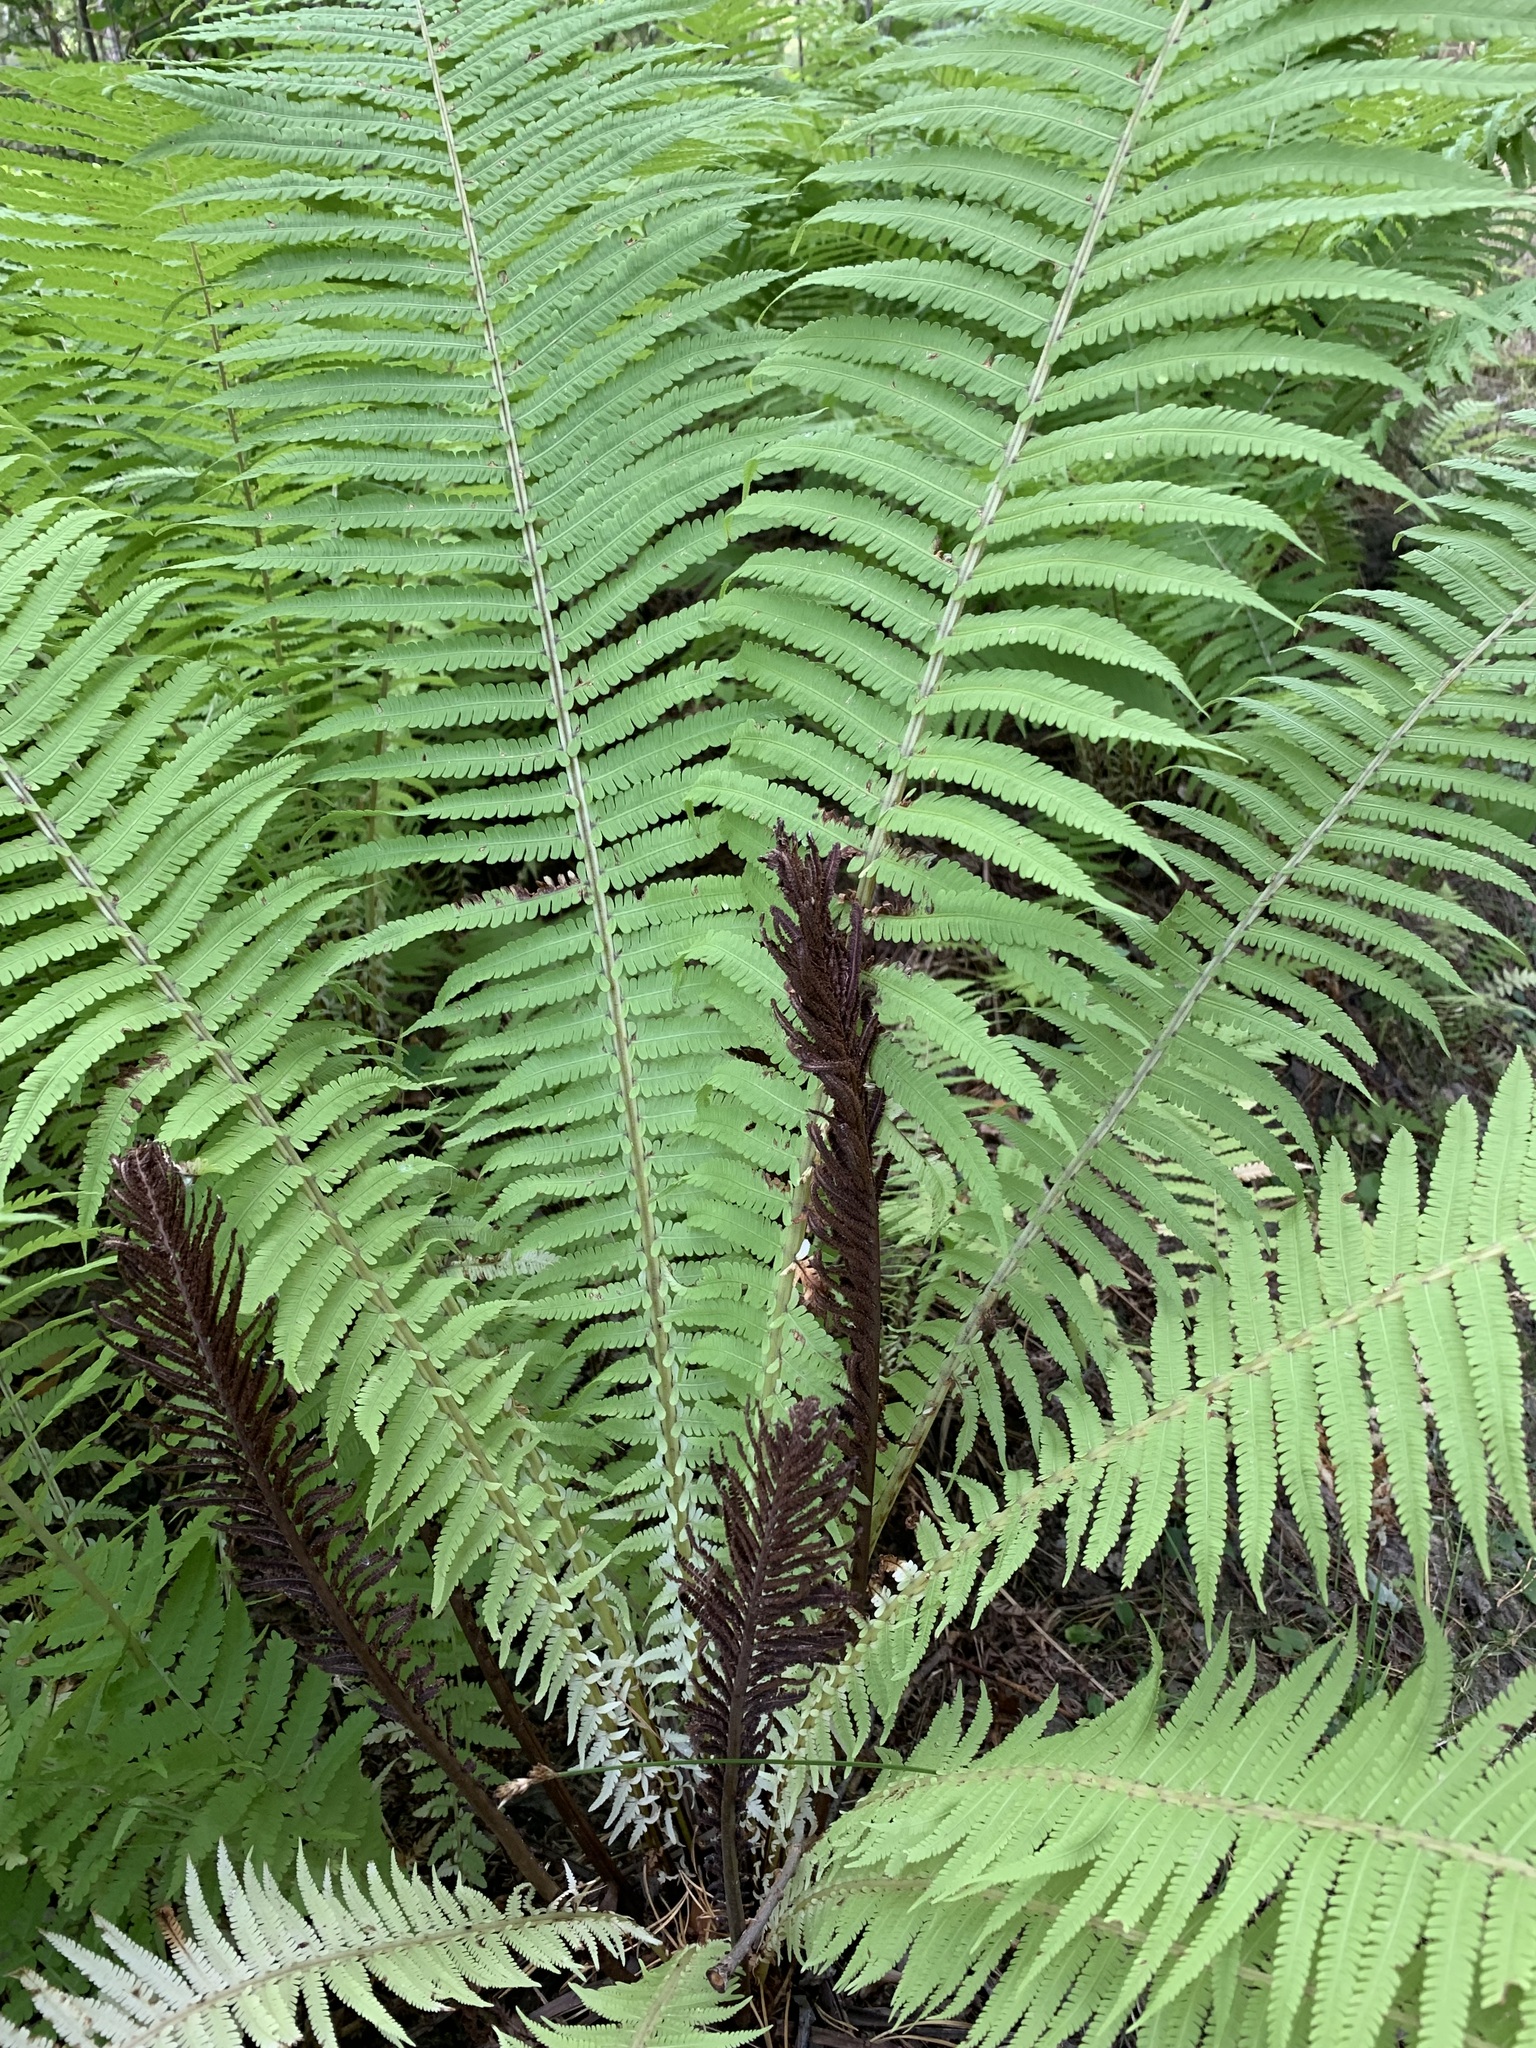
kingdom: Plantae
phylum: Tracheophyta
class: Polypodiopsida
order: Polypodiales
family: Onocleaceae
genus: Matteuccia
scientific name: Matteuccia struthiopteris
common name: Ostrich fern
